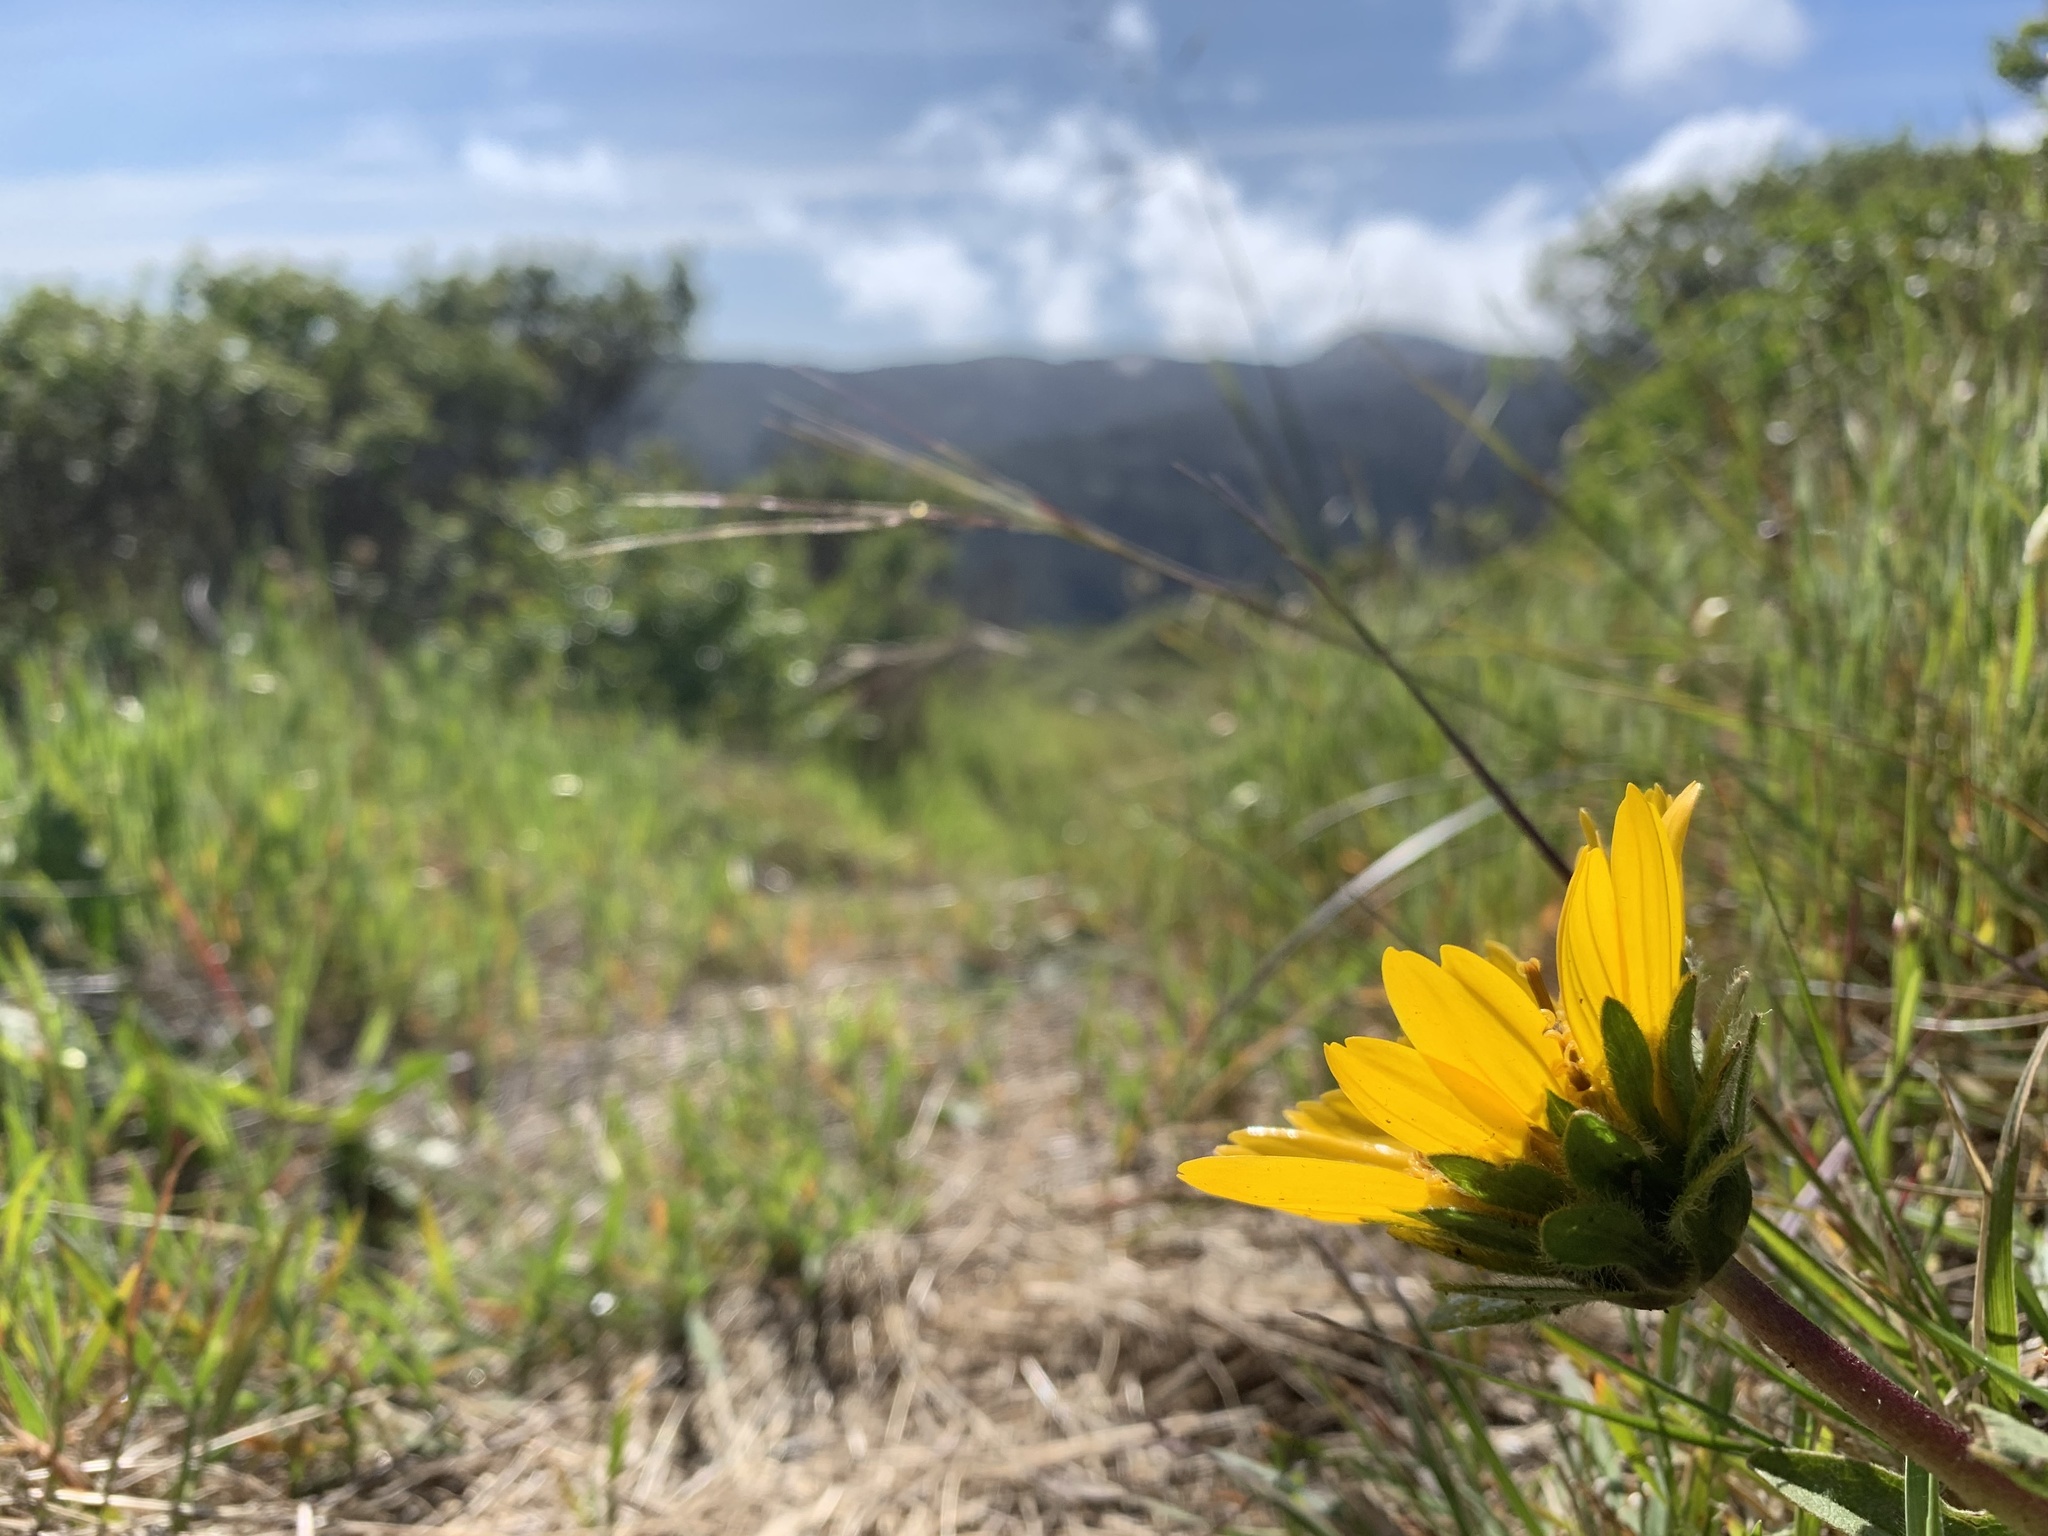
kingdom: Plantae
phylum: Tracheophyta
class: Magnoliopsida
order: Asterales
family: Asteraceae
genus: Wyethia
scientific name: Wyethia angustifolia
